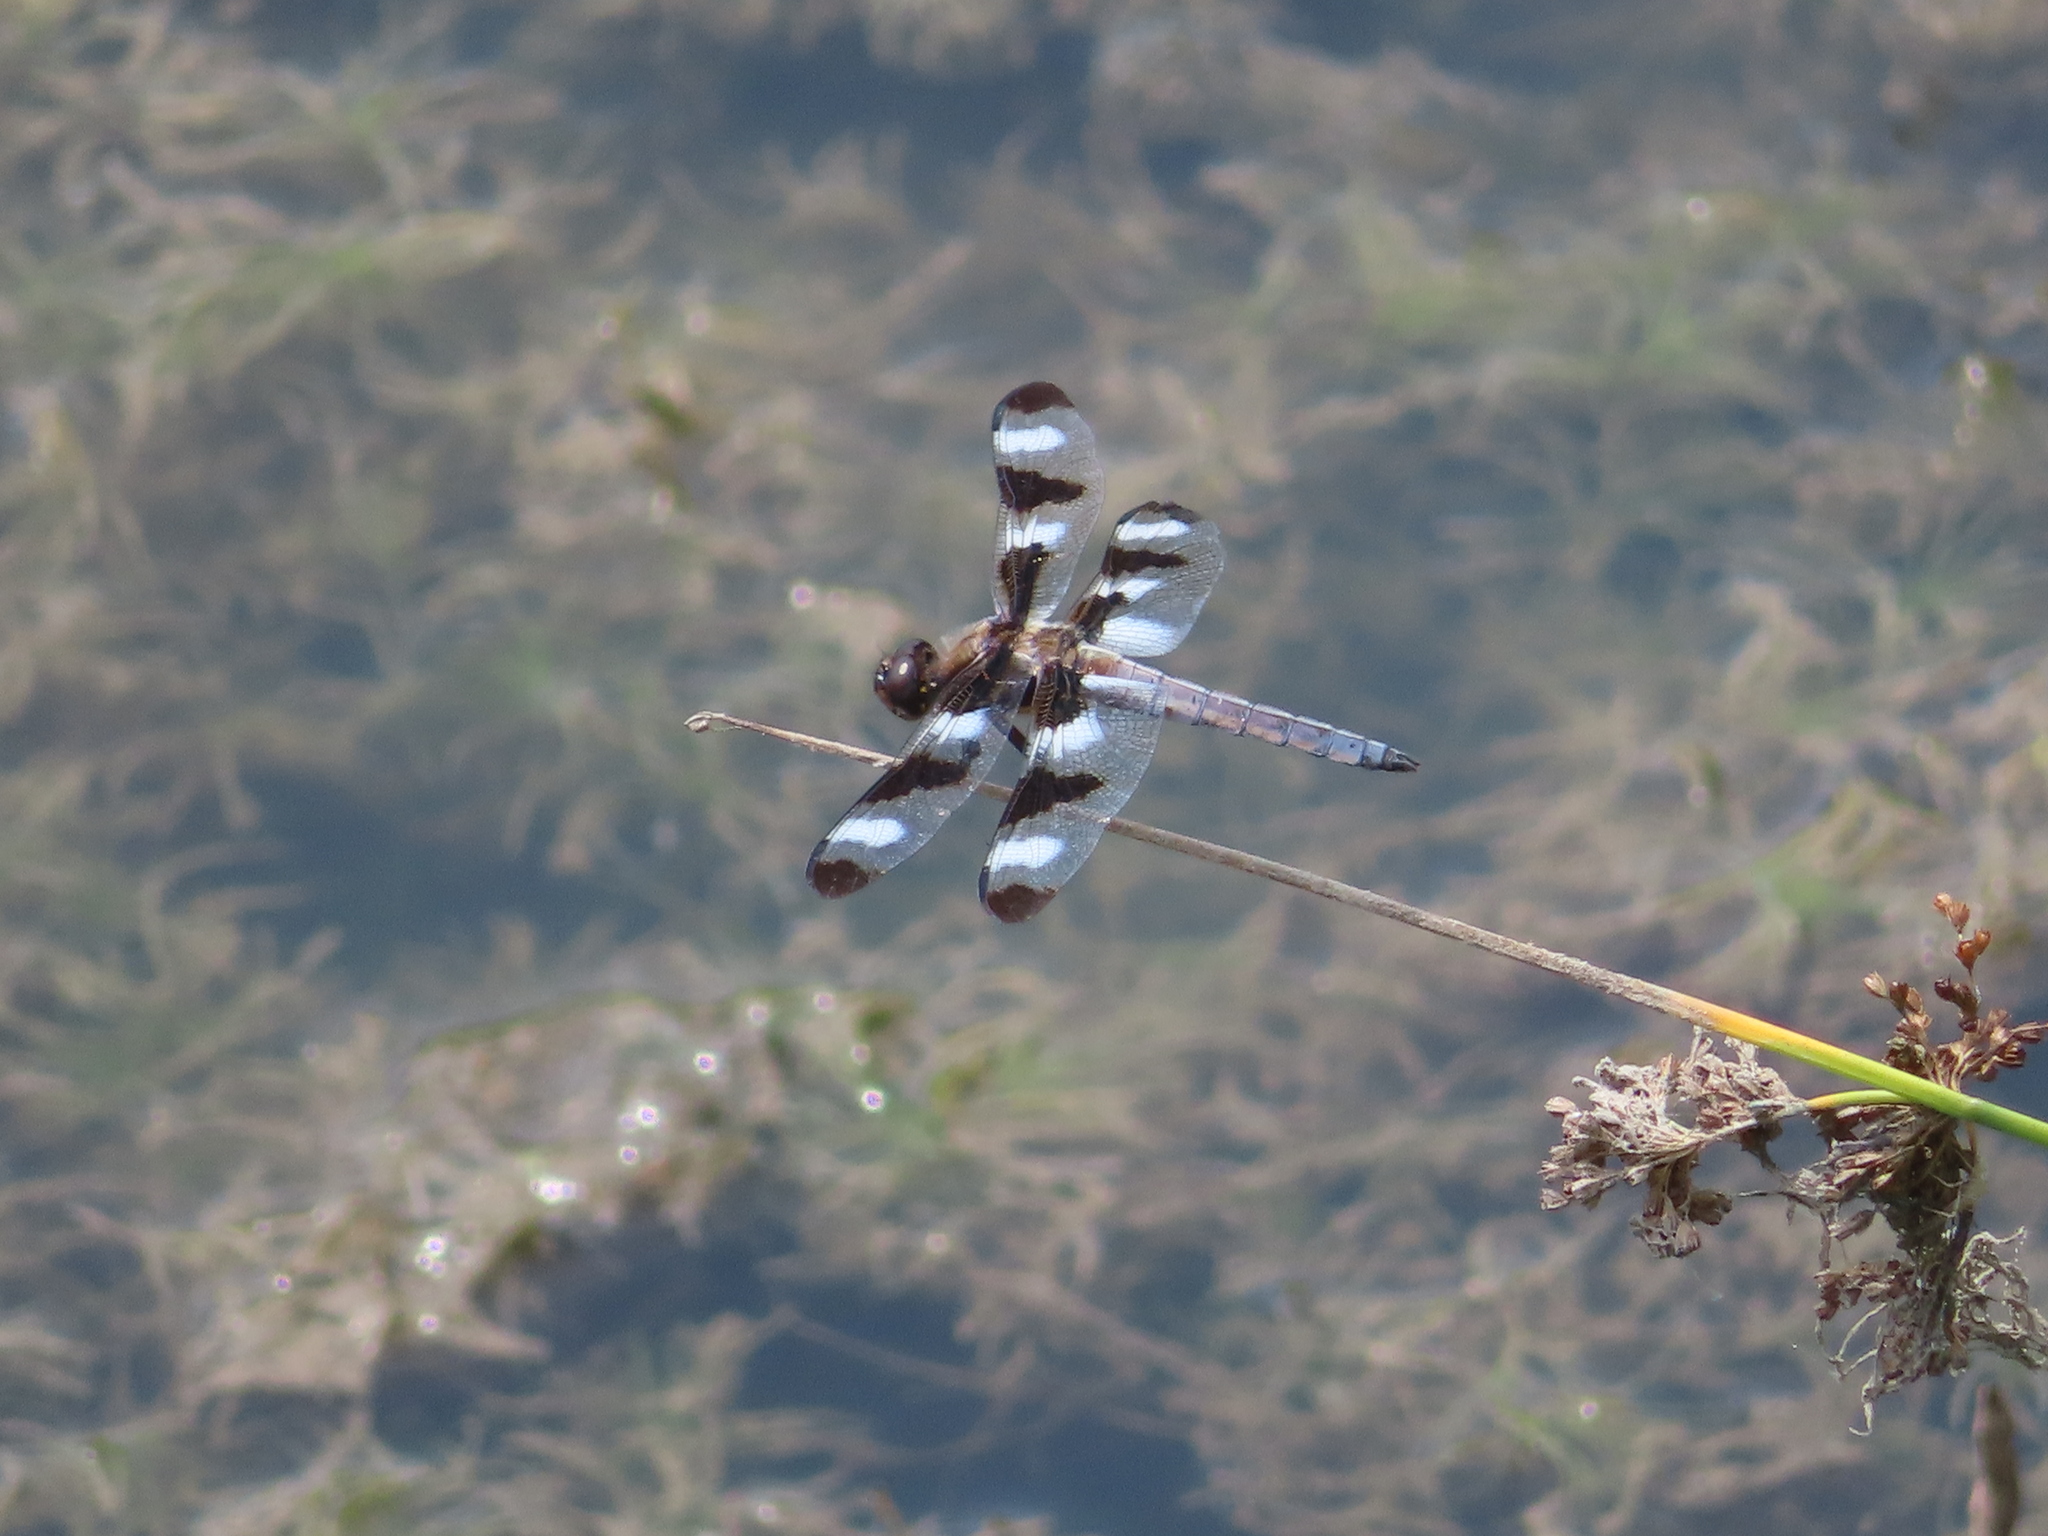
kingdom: Animalia
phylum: Arthropoda
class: Insecta
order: Odonata
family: Libellulidae
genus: Libellula
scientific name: Libellula pulchella
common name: Twelve-spotted skimmer
